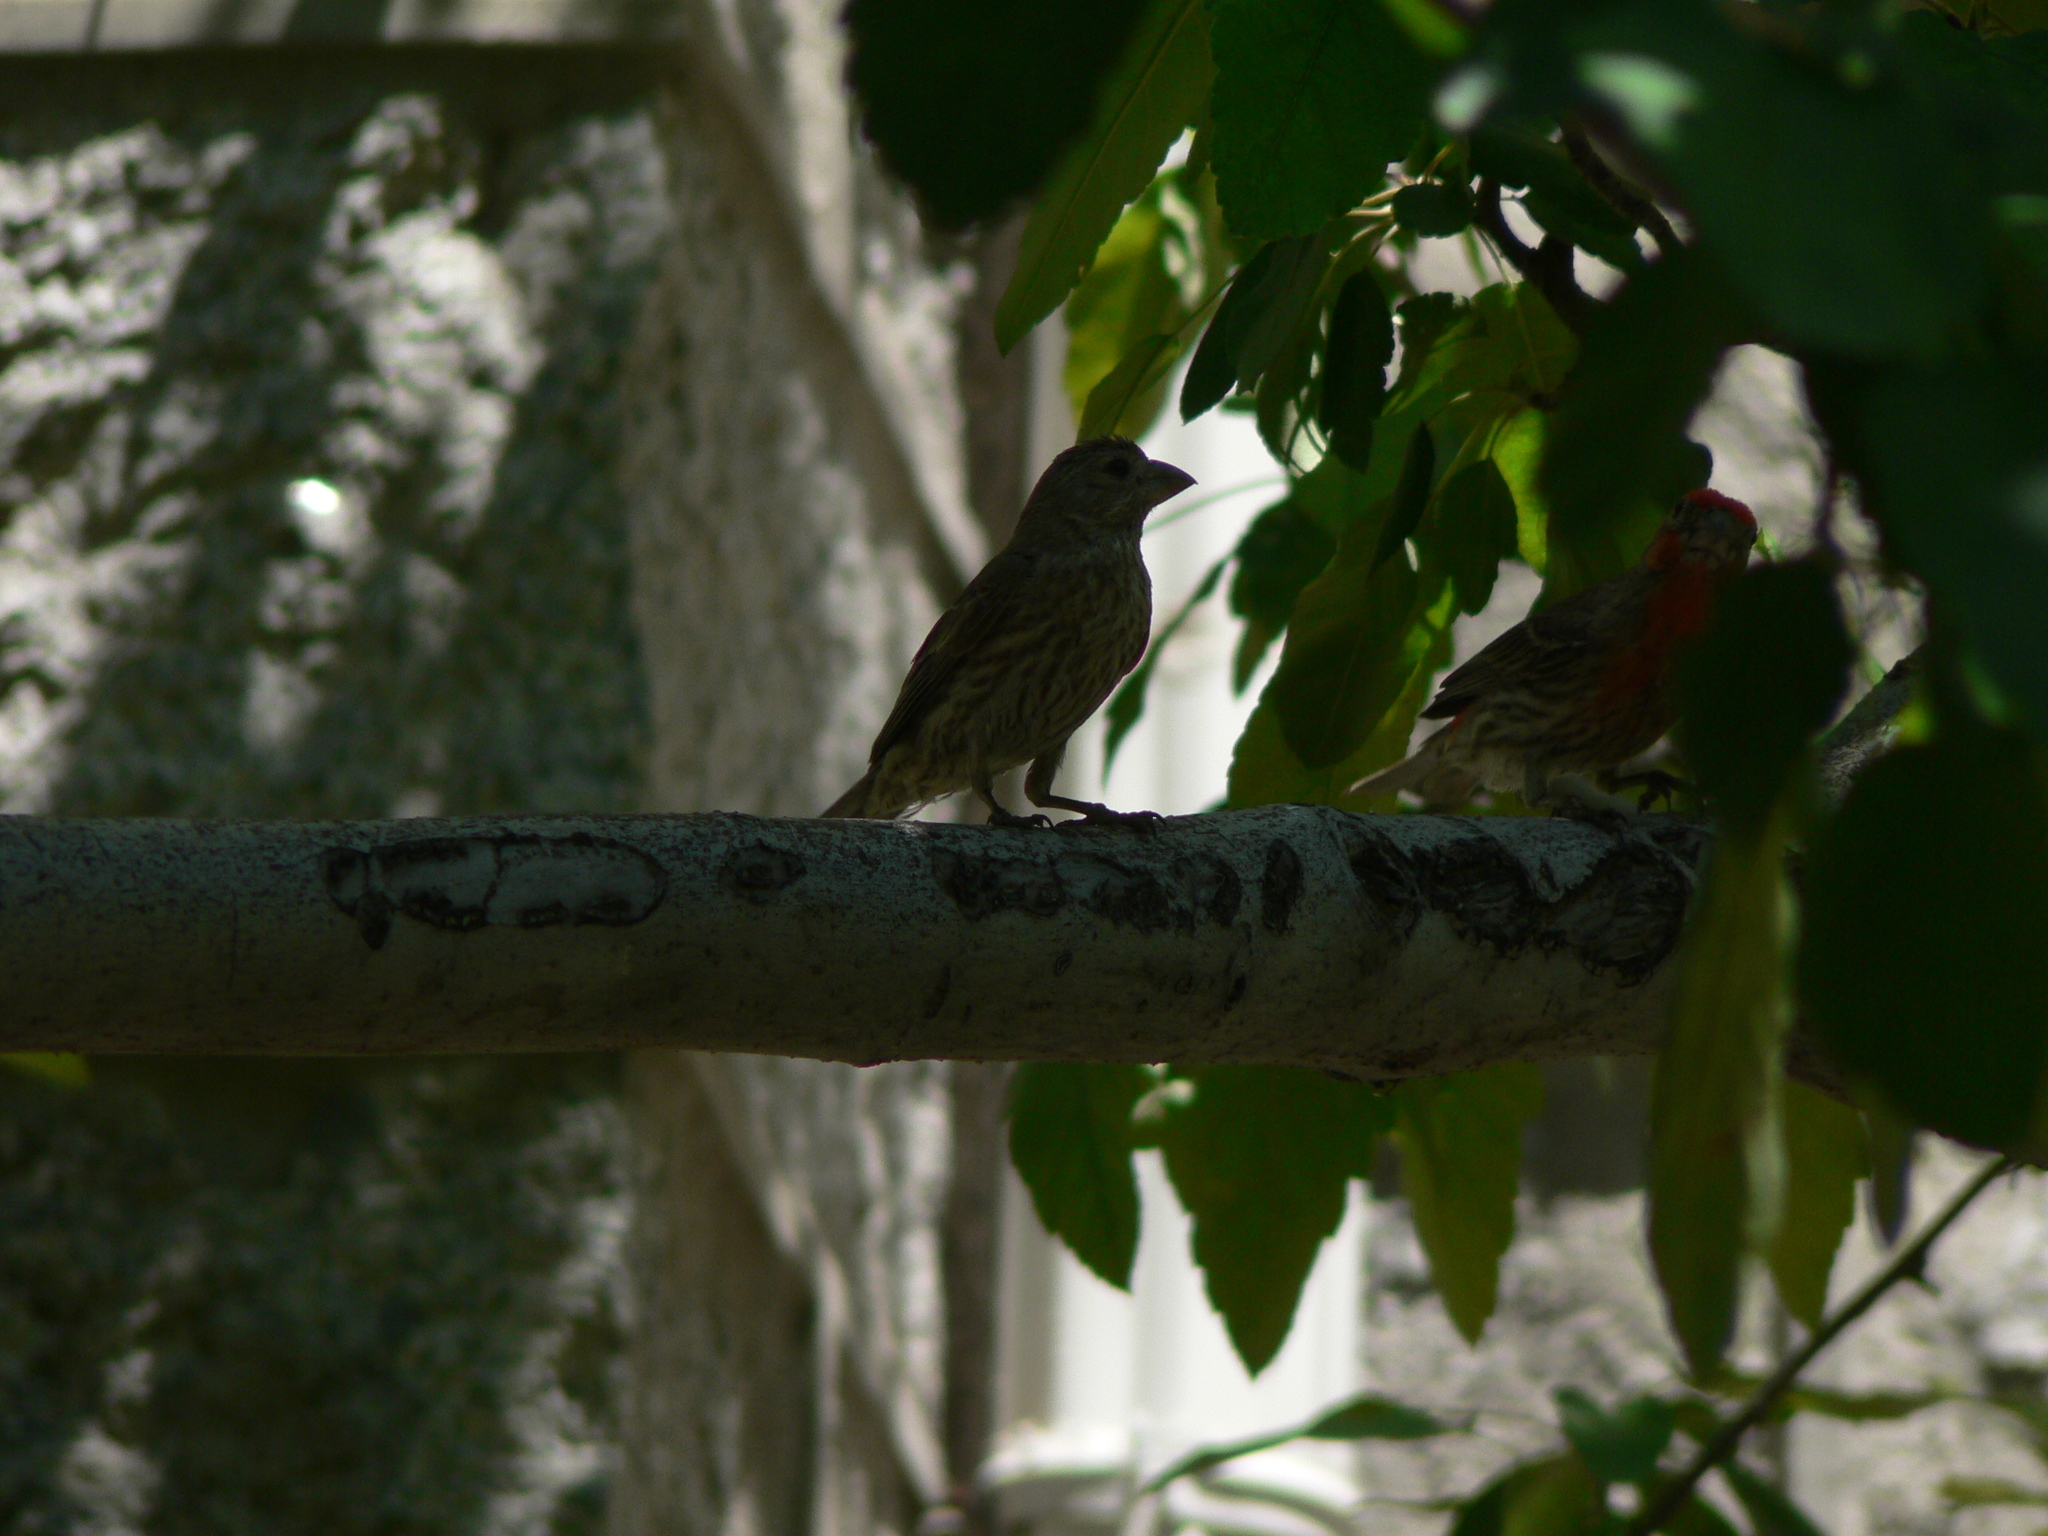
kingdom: Animalia
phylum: Chordata
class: Aves
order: Passeriformes
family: Fringillidae
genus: Haemorhous
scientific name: Haemorhous mexicanus
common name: House finch
